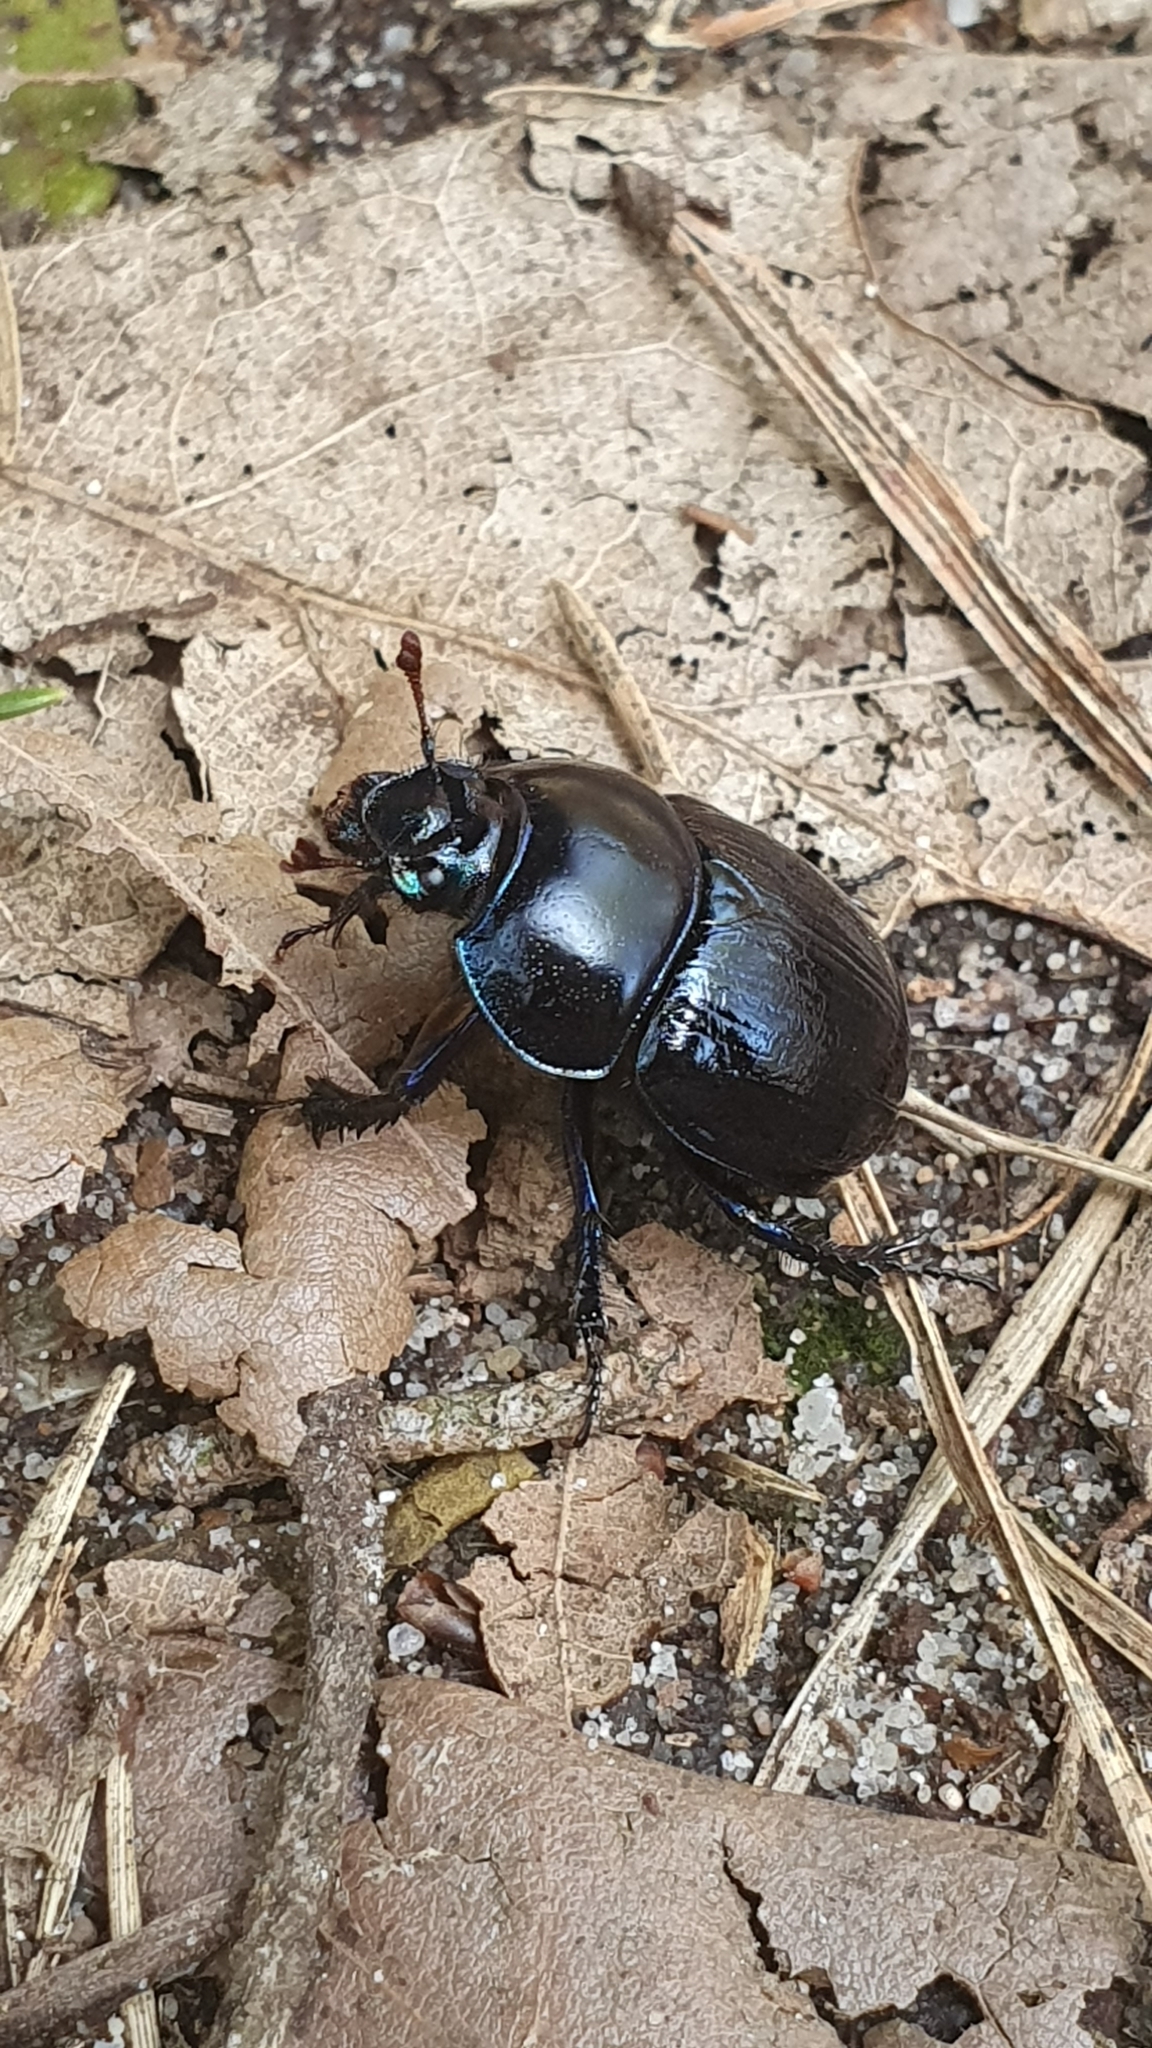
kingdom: Animalia
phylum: Arthropoda
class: Insecta
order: Coleoptera
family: Geotrupidae
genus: Anoplotrupes
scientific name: Anoplotrupes stercorosus
